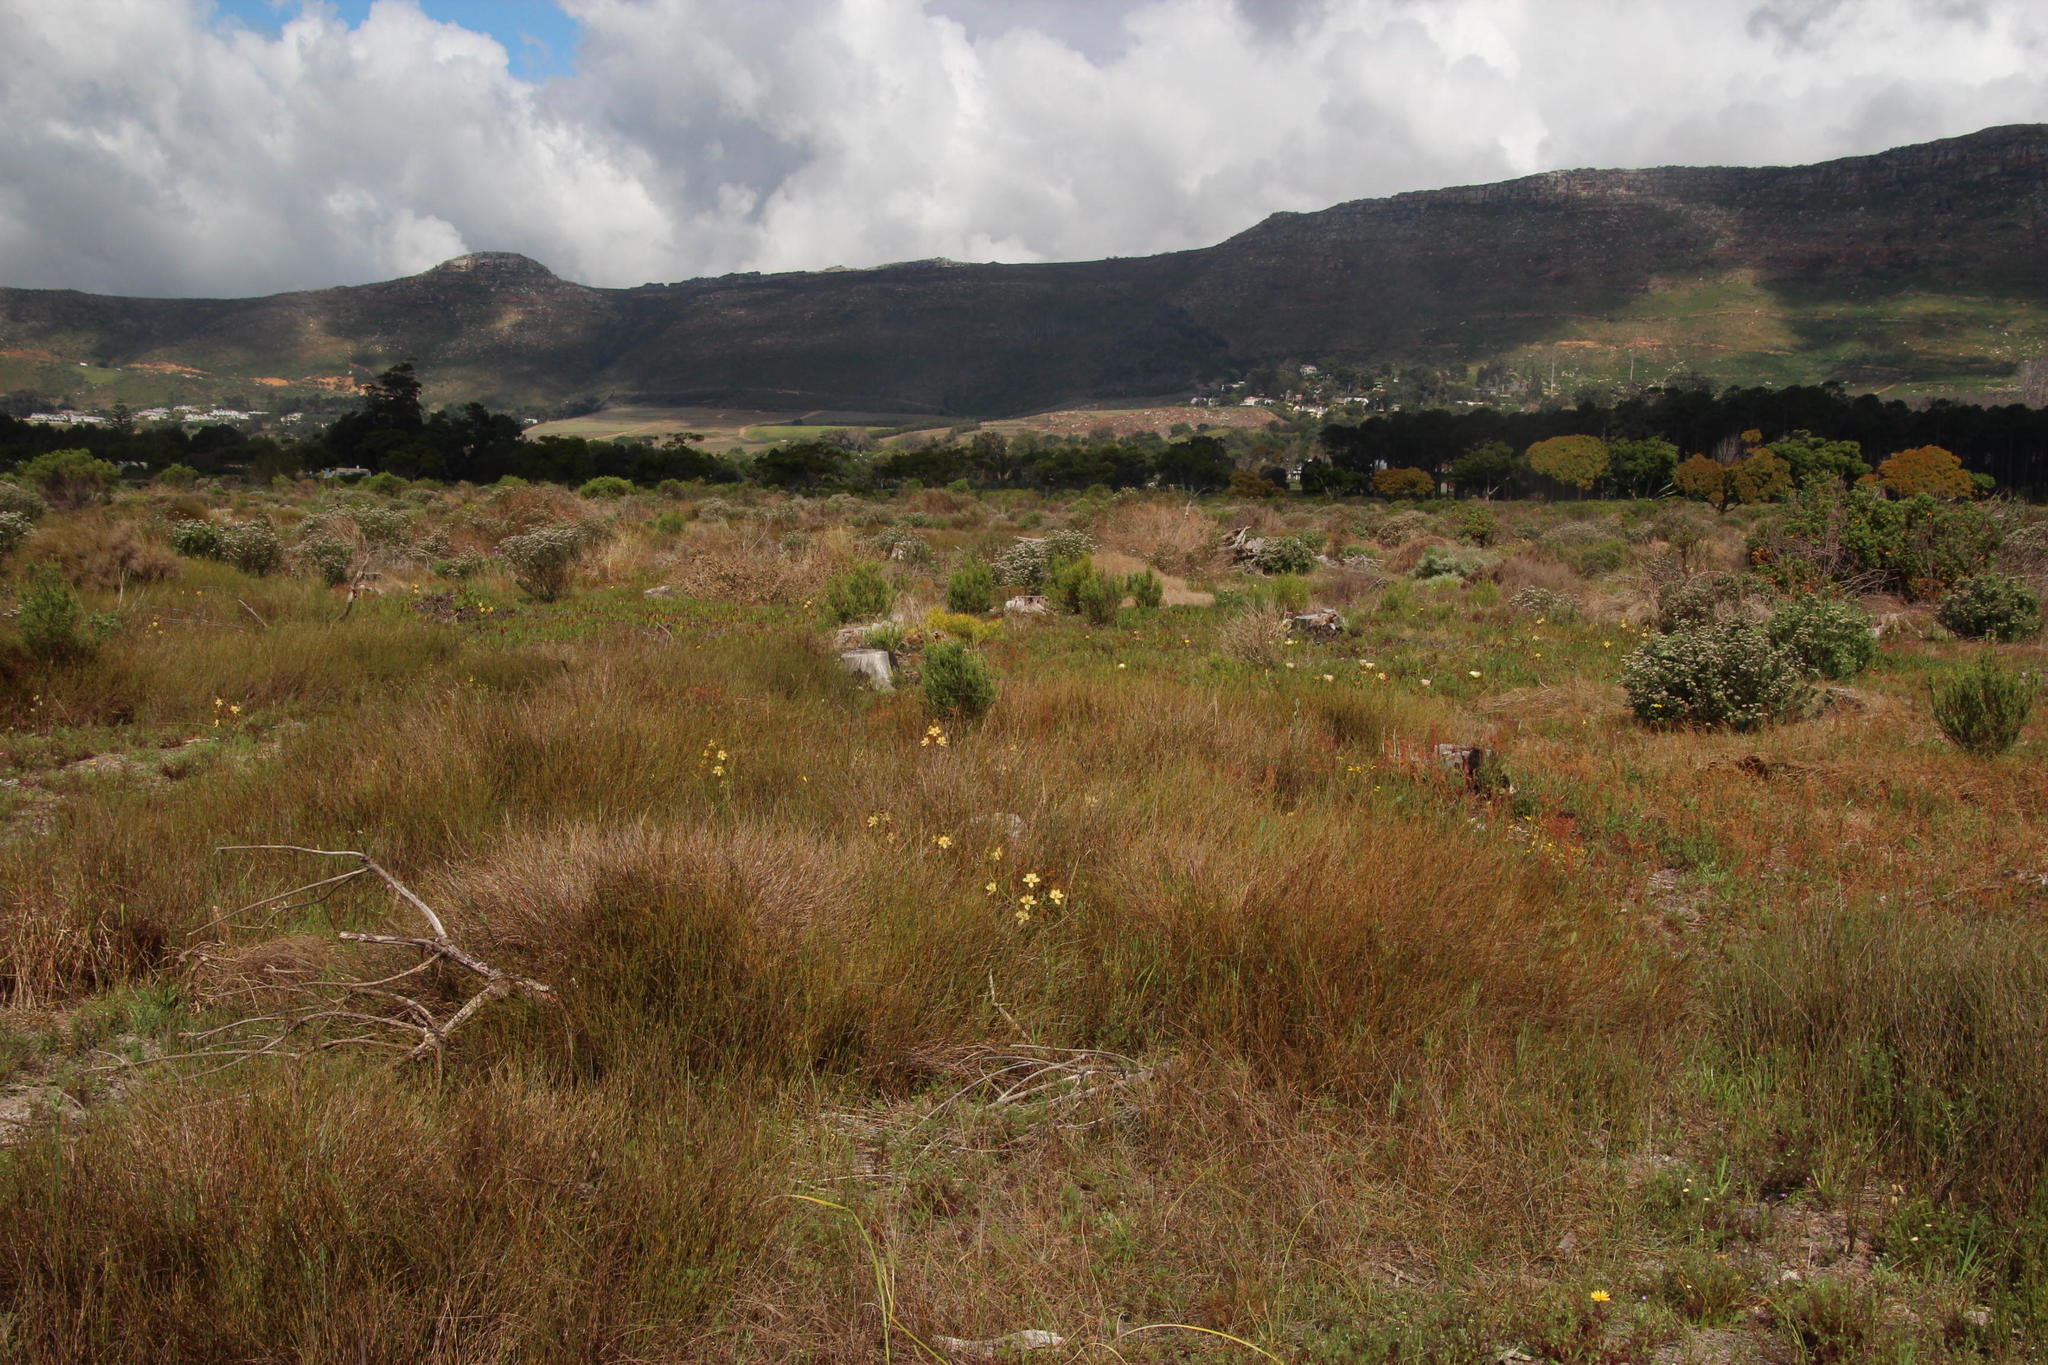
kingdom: Plantae
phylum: Tracheophyta
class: Liliopsida
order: Commelinales
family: Haemodoraceae
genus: Wachendorfia
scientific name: Wachendorfia paniculata
